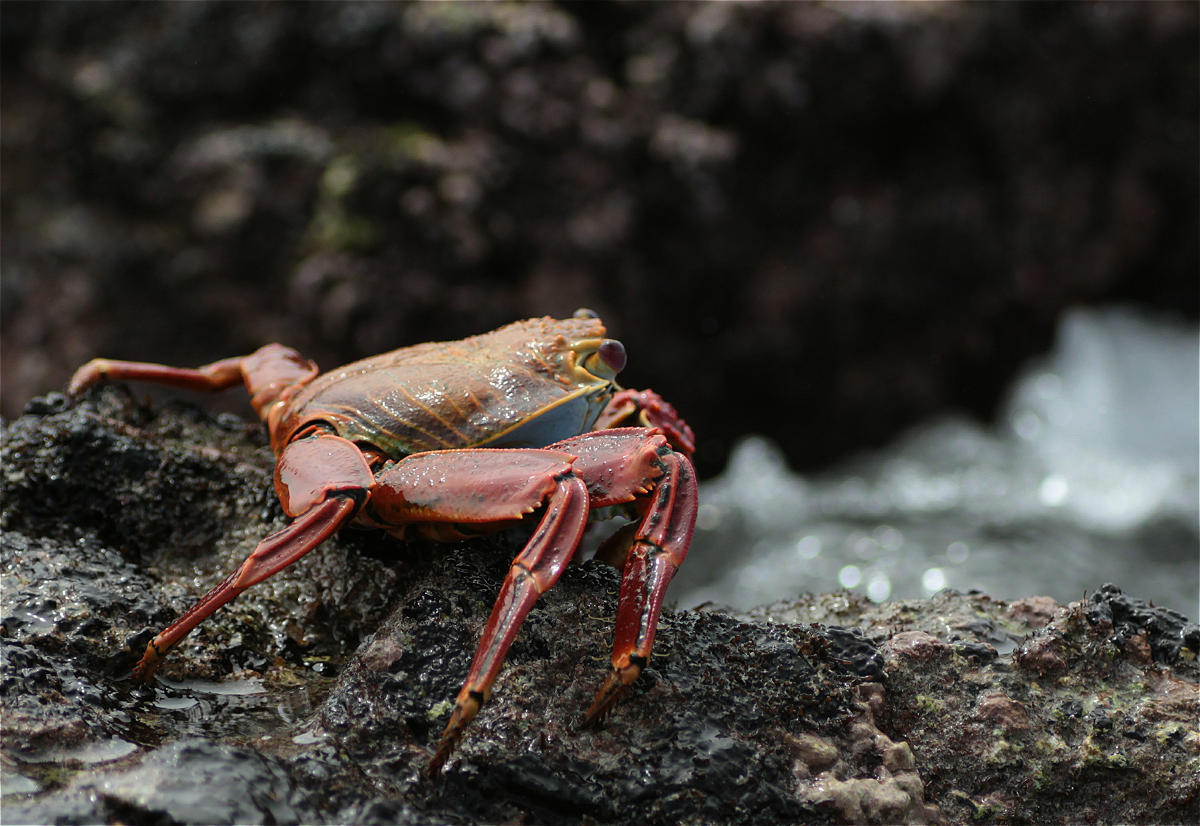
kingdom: Animalia
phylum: Arthropoda
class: Malacostraca
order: Decapoda
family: Grapsidae
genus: Grapsus
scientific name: Grapsus grapsus
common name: Sally lightfoot
